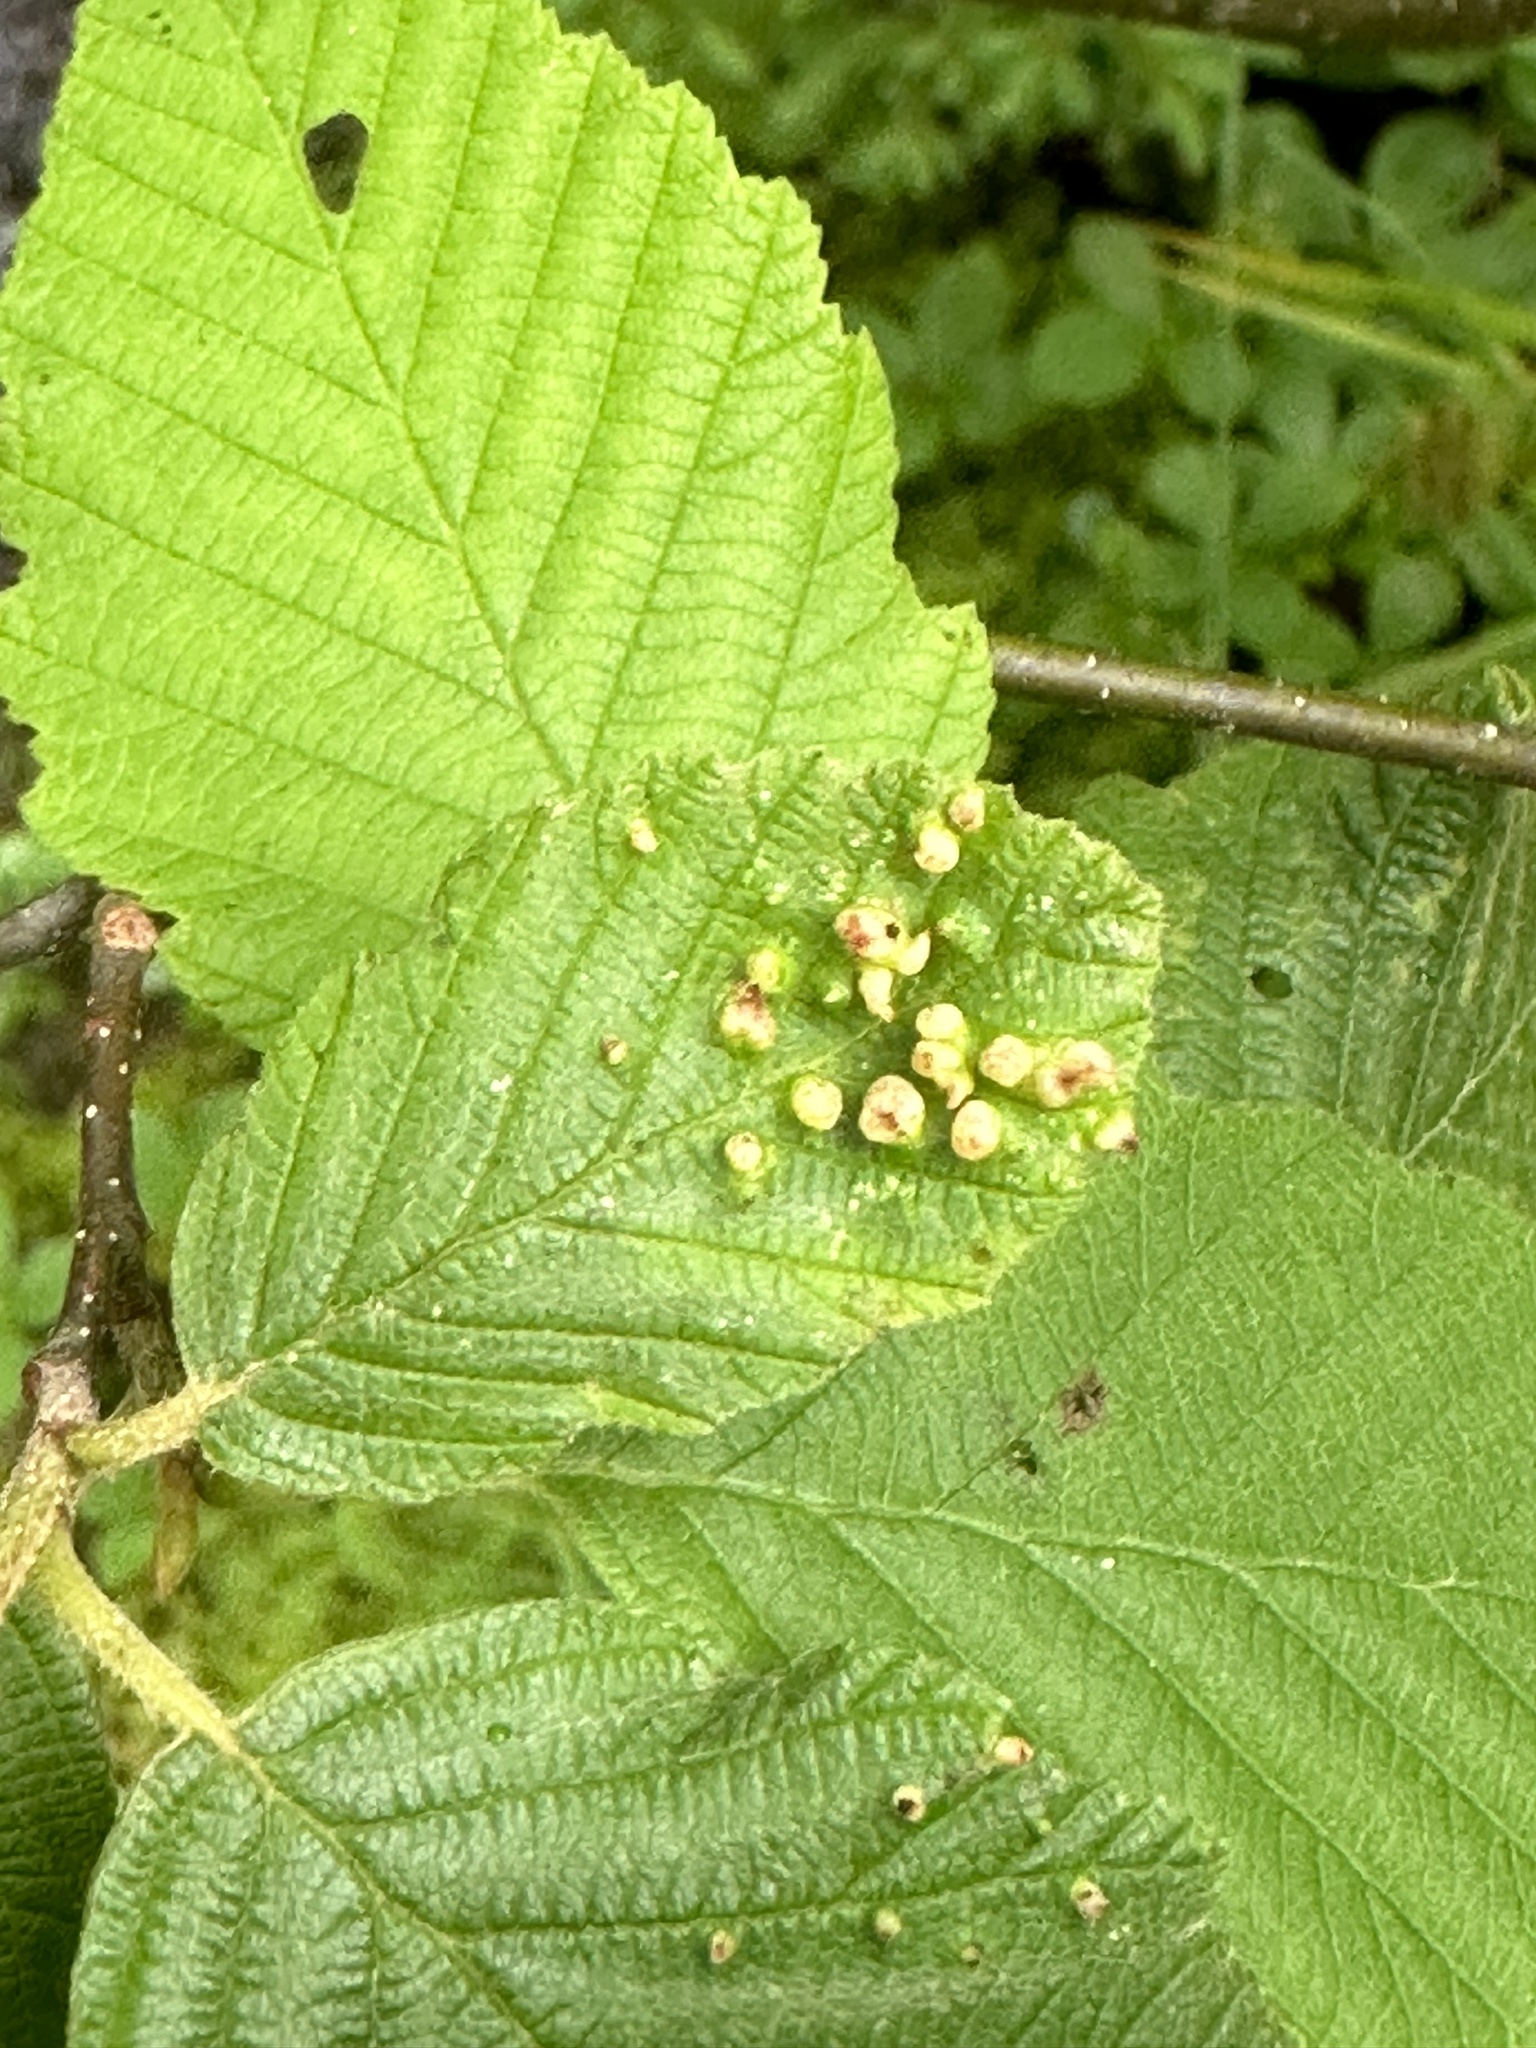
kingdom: Animalia
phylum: Arthropoda
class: Arachnida
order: Trombidiformes
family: Eriophyidae
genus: Eriophyes
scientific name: Eriophyes laevis
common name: Alder leaf gall mite
